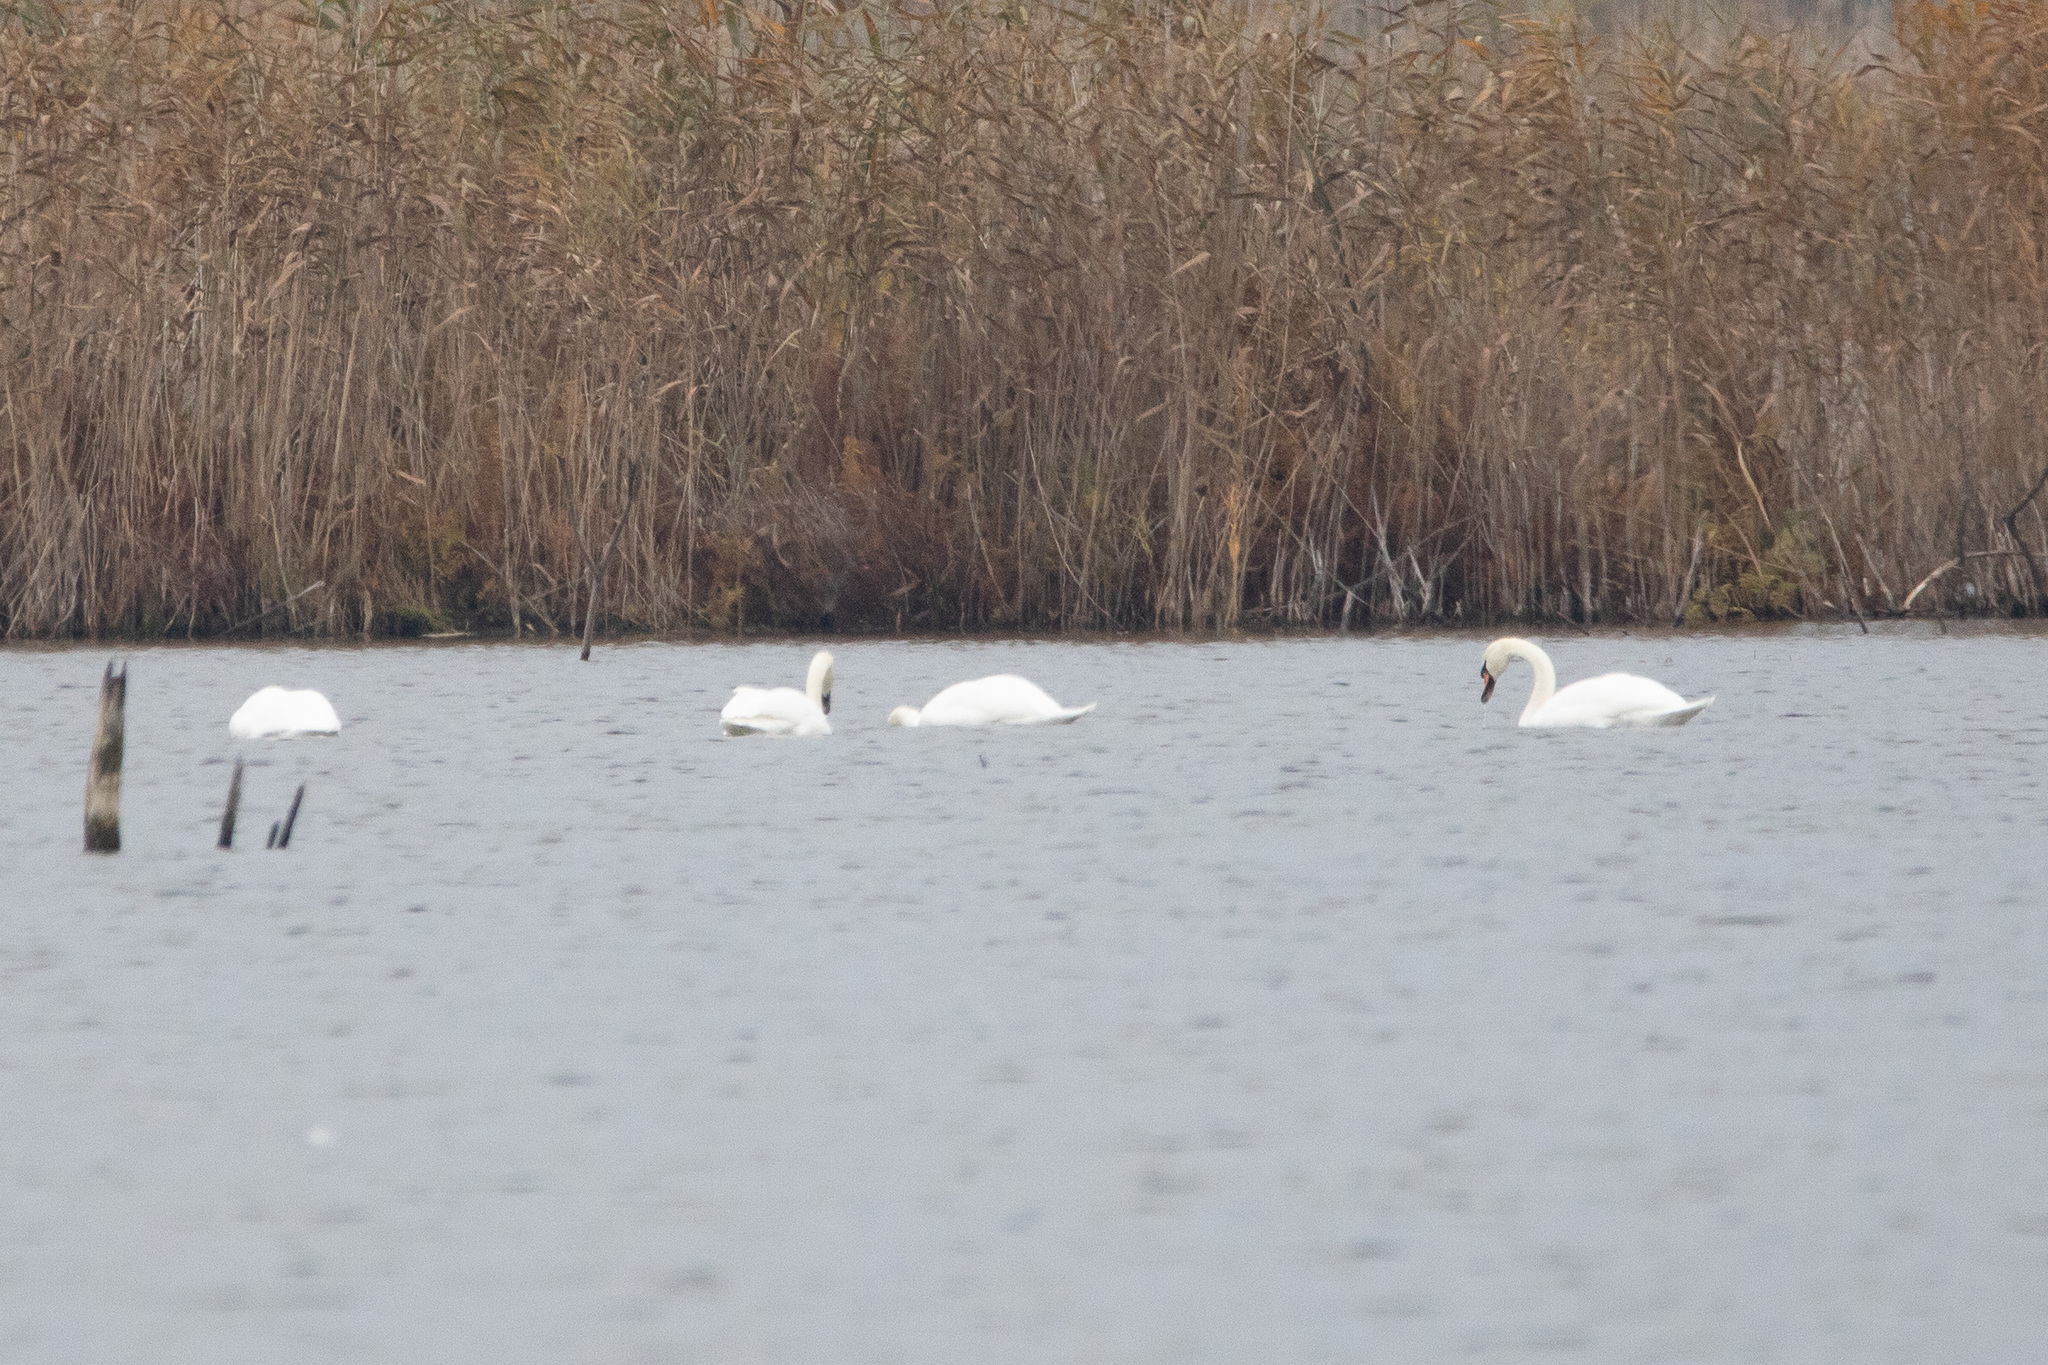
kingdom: Animalia
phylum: Chordata
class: Aves
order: Anseriformes
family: Anatidae
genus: Cygnus
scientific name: Cygnus olor
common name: Mute swan
